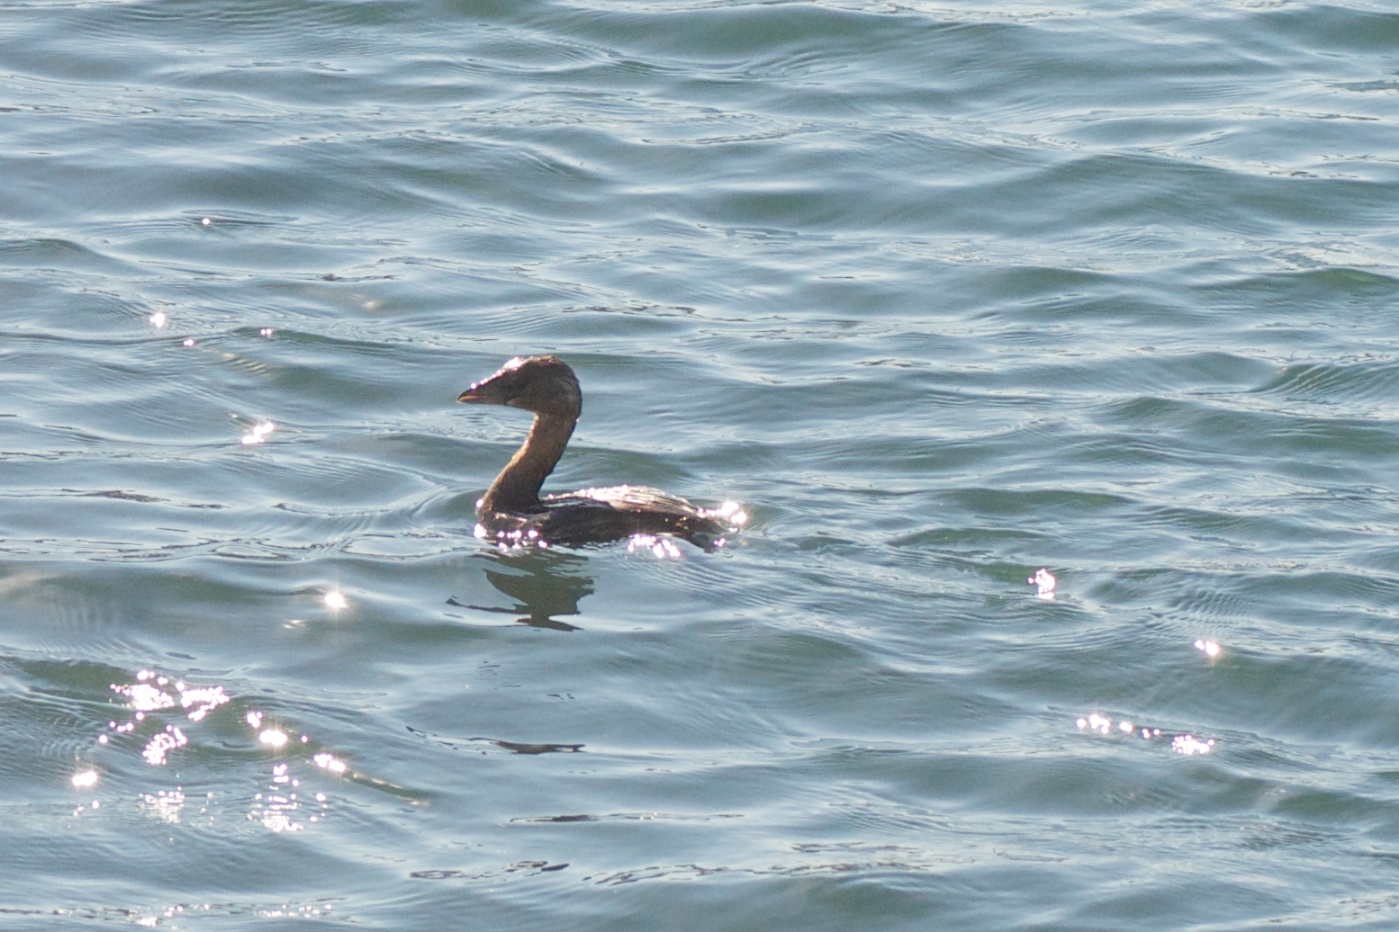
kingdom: Animalia
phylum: Chordata
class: Aves
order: Podicipediformes
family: Podicipedidae
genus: Podilymbus
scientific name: Podilymbus podiceps
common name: Pied-billed grebe
